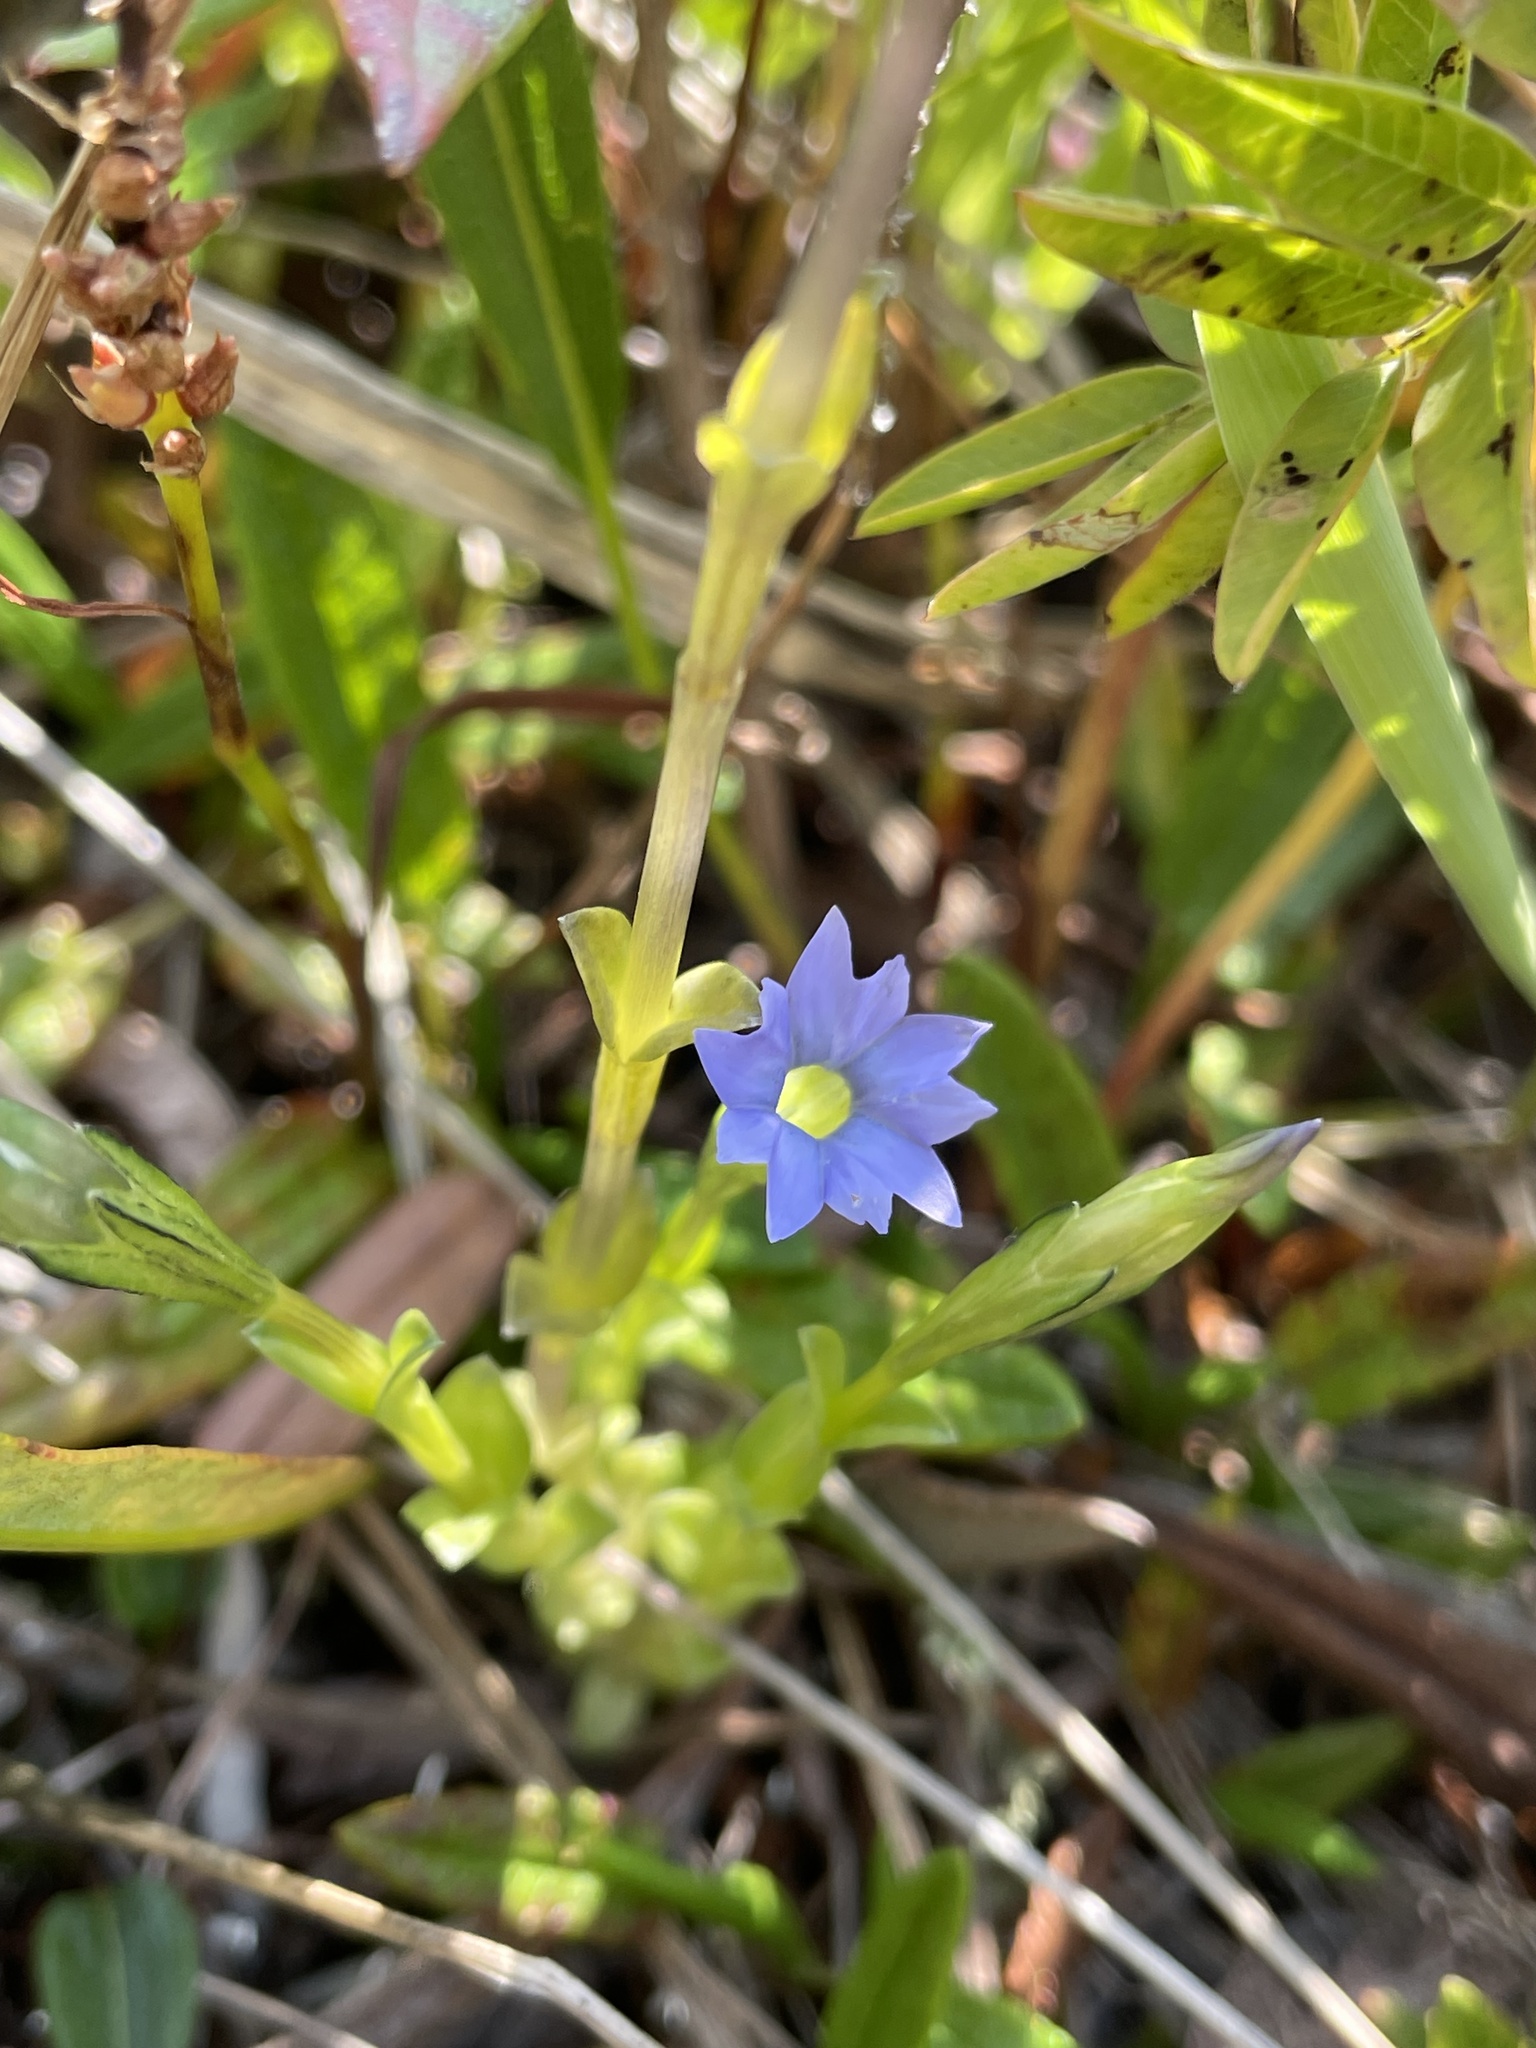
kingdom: Plantae
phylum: Tracheophyta
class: Magnoliopsida
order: Gentianales
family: Gentianaceae
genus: Gentiana
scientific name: Gentiana prostrata
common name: Moss gentian
